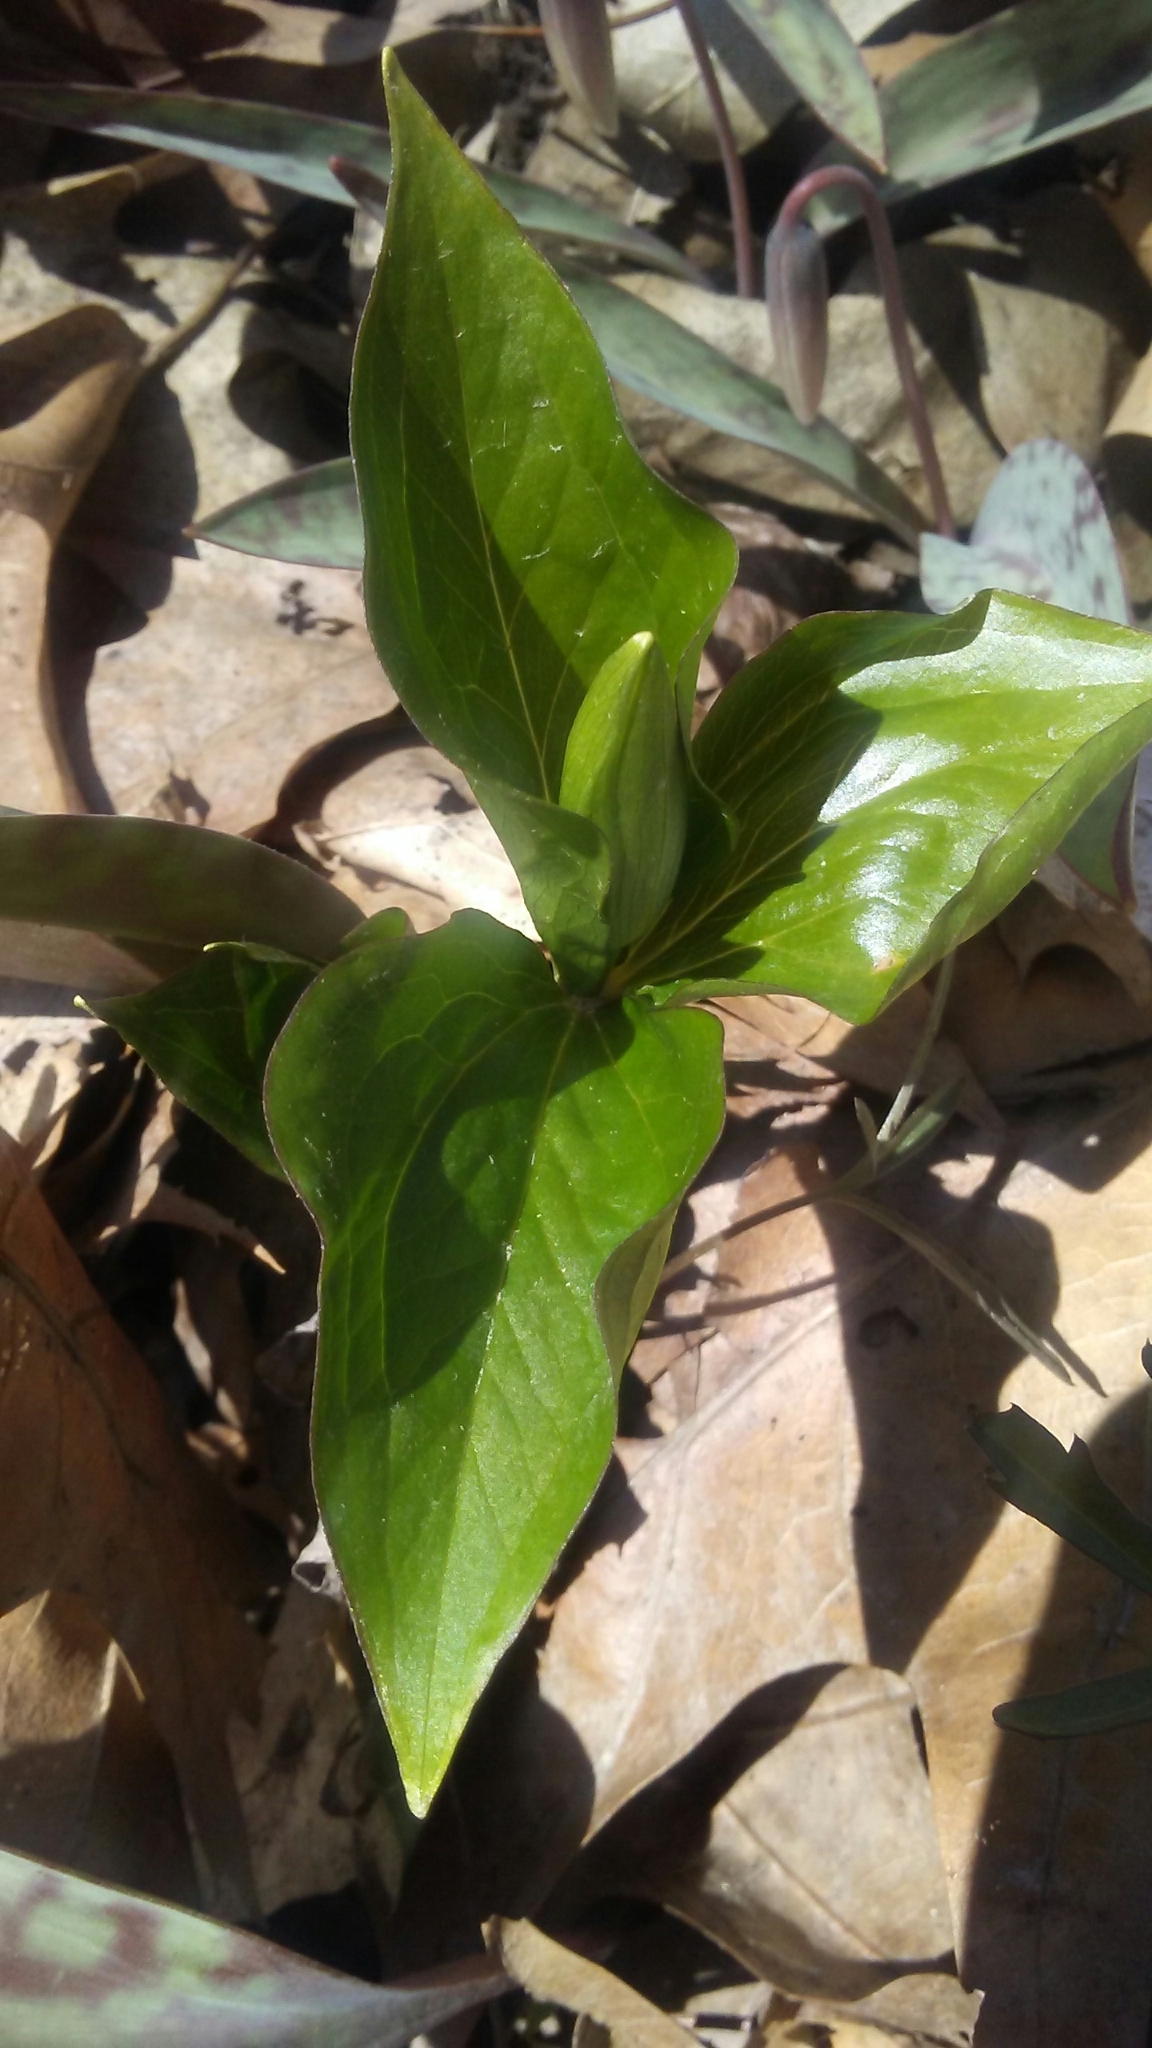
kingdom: Plantae
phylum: Tracheophyta
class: Liliopsida
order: Liliales
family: Melanthiaceae
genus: Trillium
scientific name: Trillium grandiflorum
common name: Great white trillium
